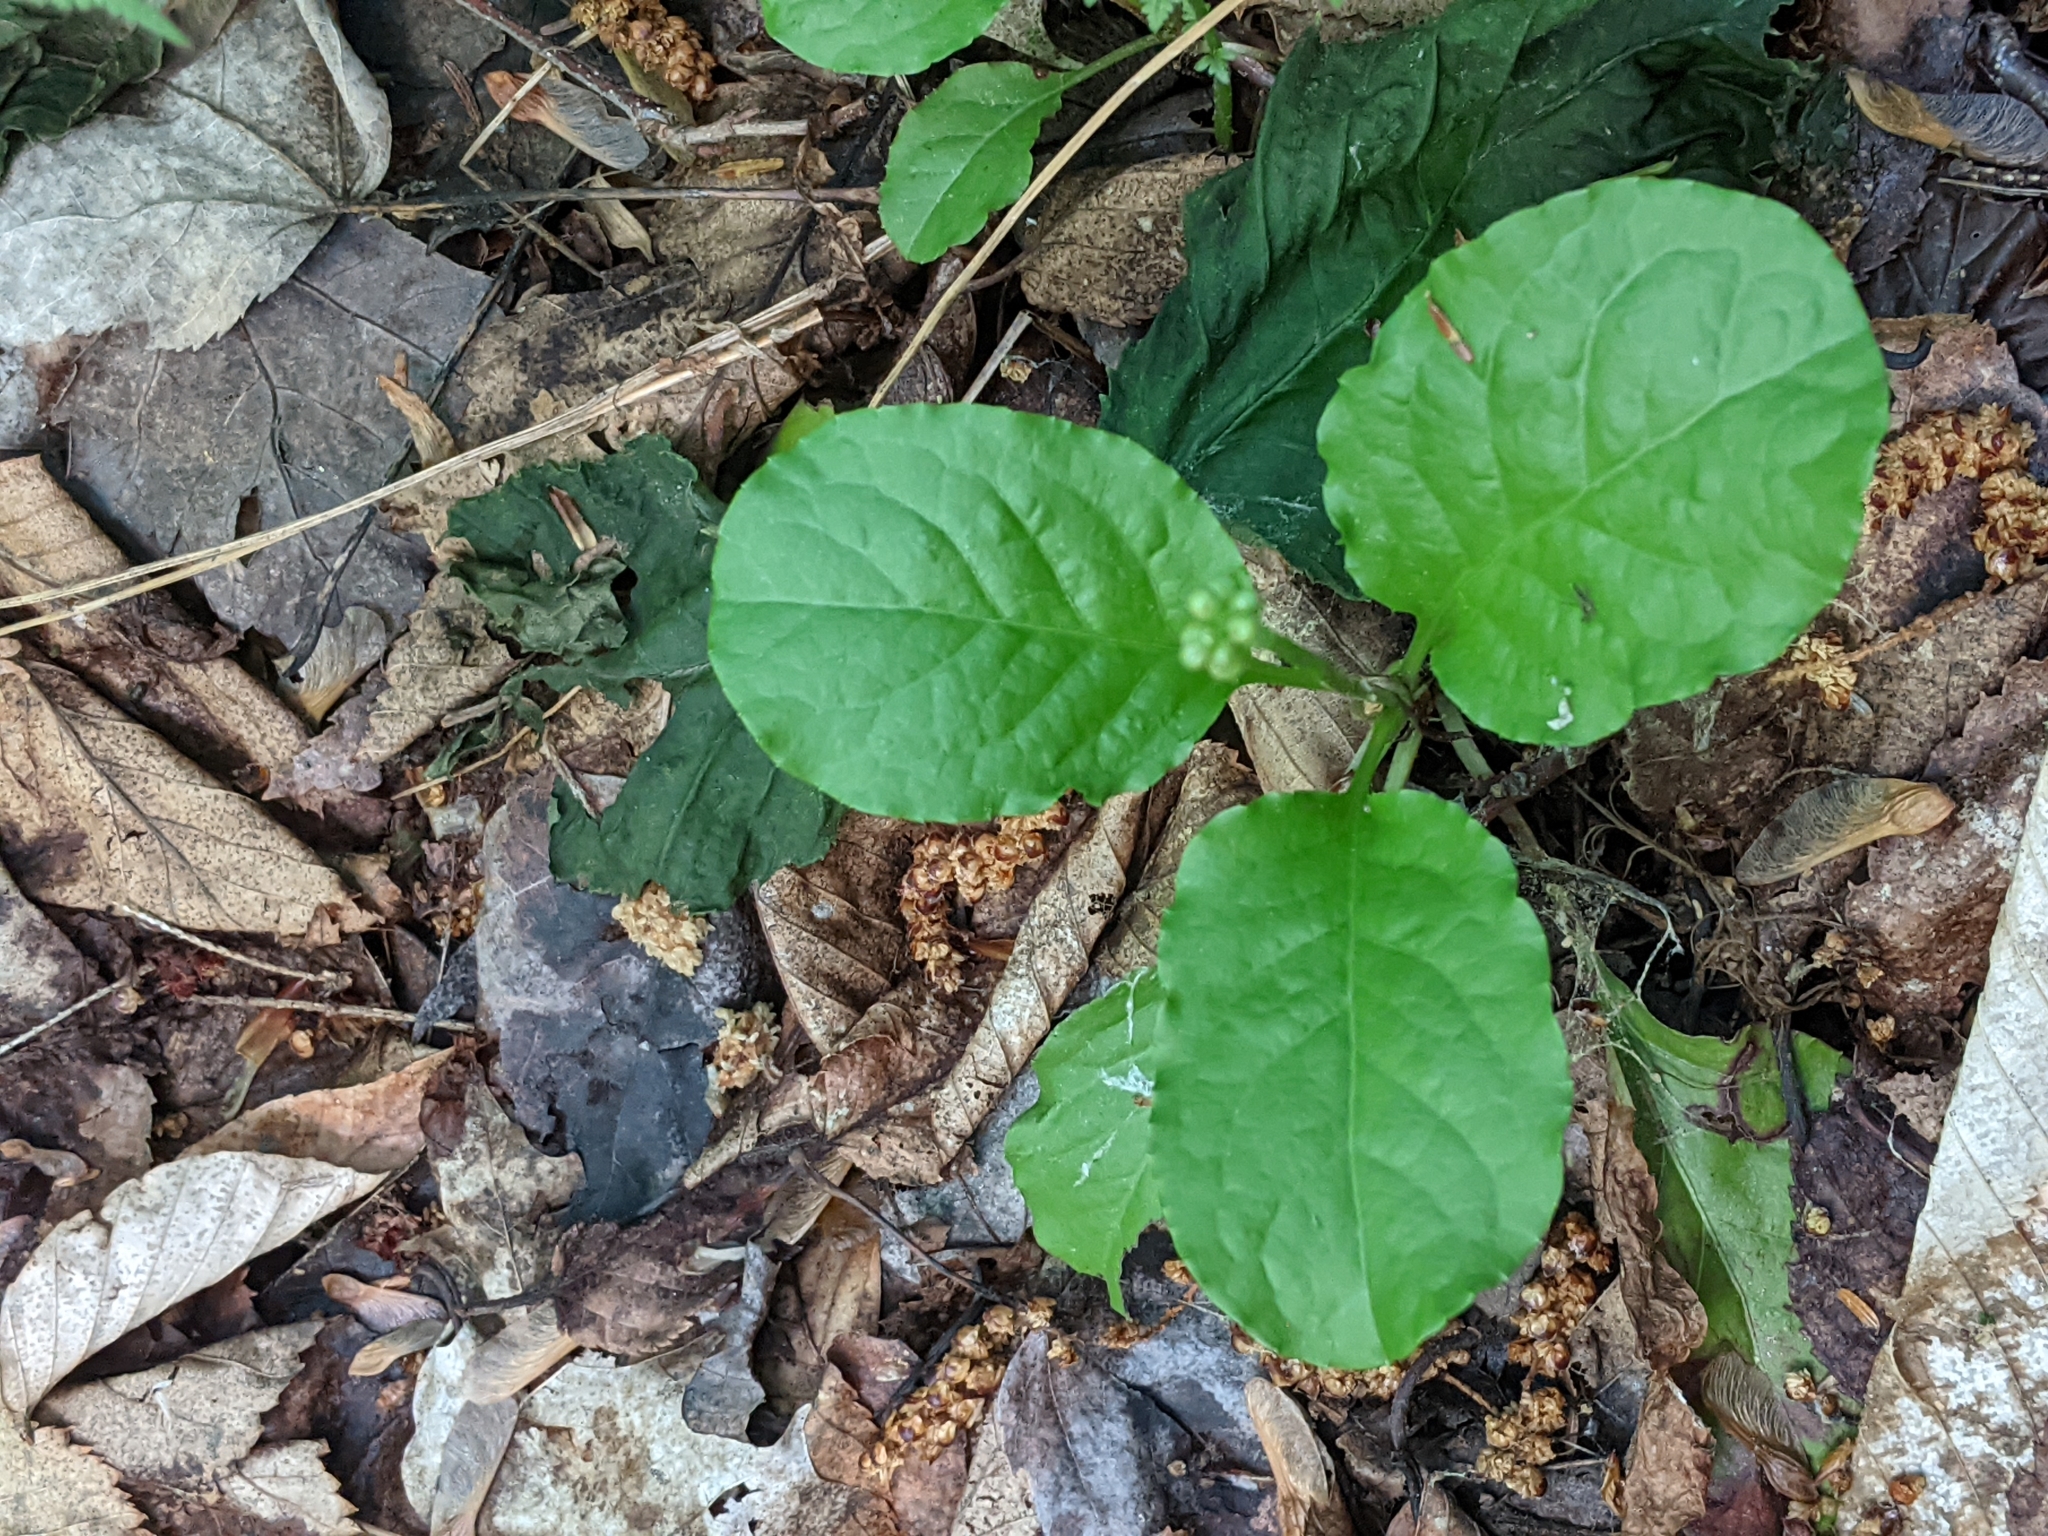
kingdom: Plantae
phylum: Tracheophyta
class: Magnoliopsida
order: Ericales
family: Ericaceae
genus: Pyrola
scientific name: Pyrola elliptica
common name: Shinleaf
